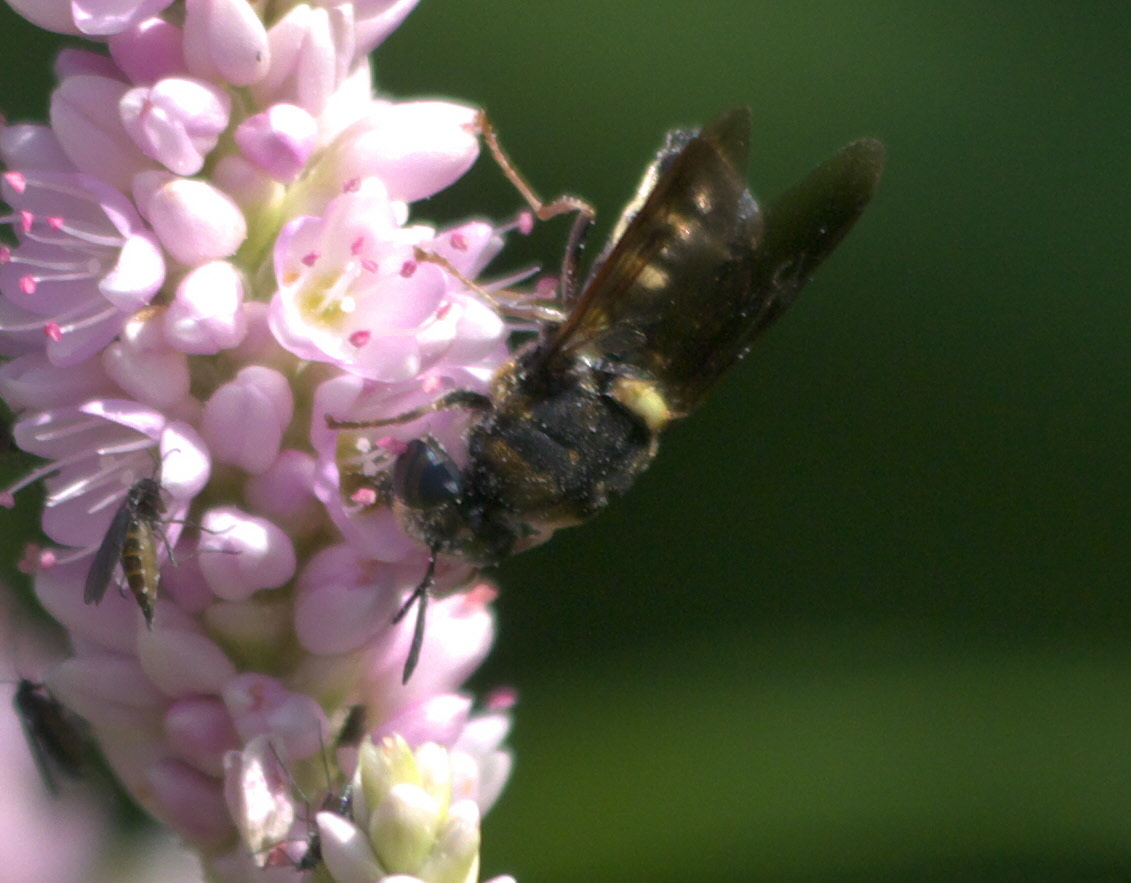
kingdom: Animalia
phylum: Arthropoda
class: Insecta
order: Diptera
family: Stratiomyidae
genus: Stratiomys
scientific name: Stratiomys hulli
